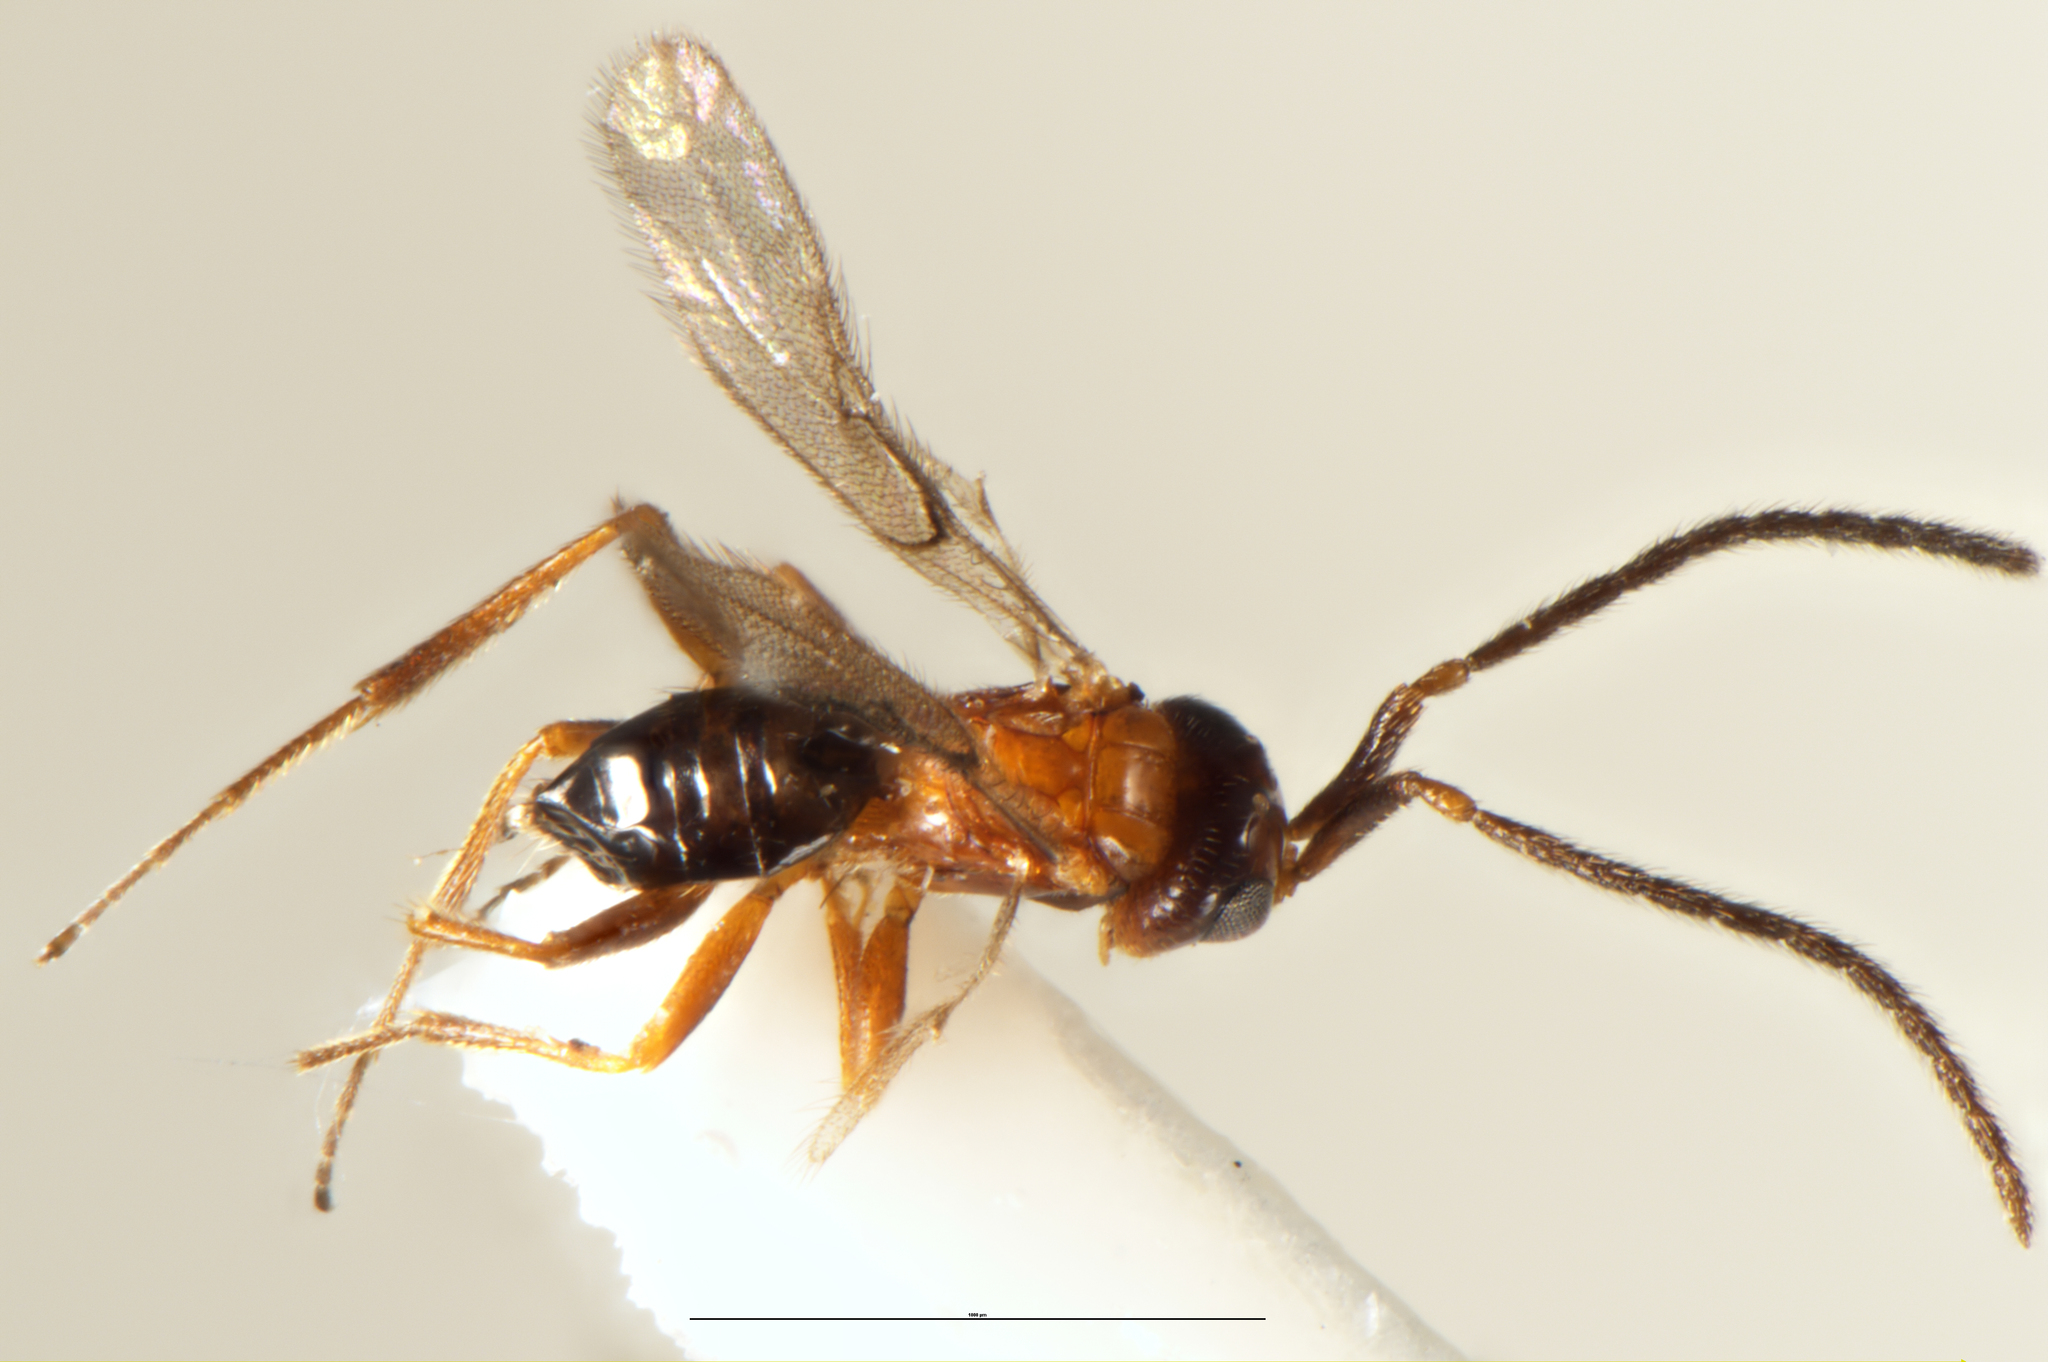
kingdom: Animalia
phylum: Arthropoda
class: Insecta
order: Hymenoptera
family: Maamingidae
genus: Maaminga
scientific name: Maaminga marrisi
